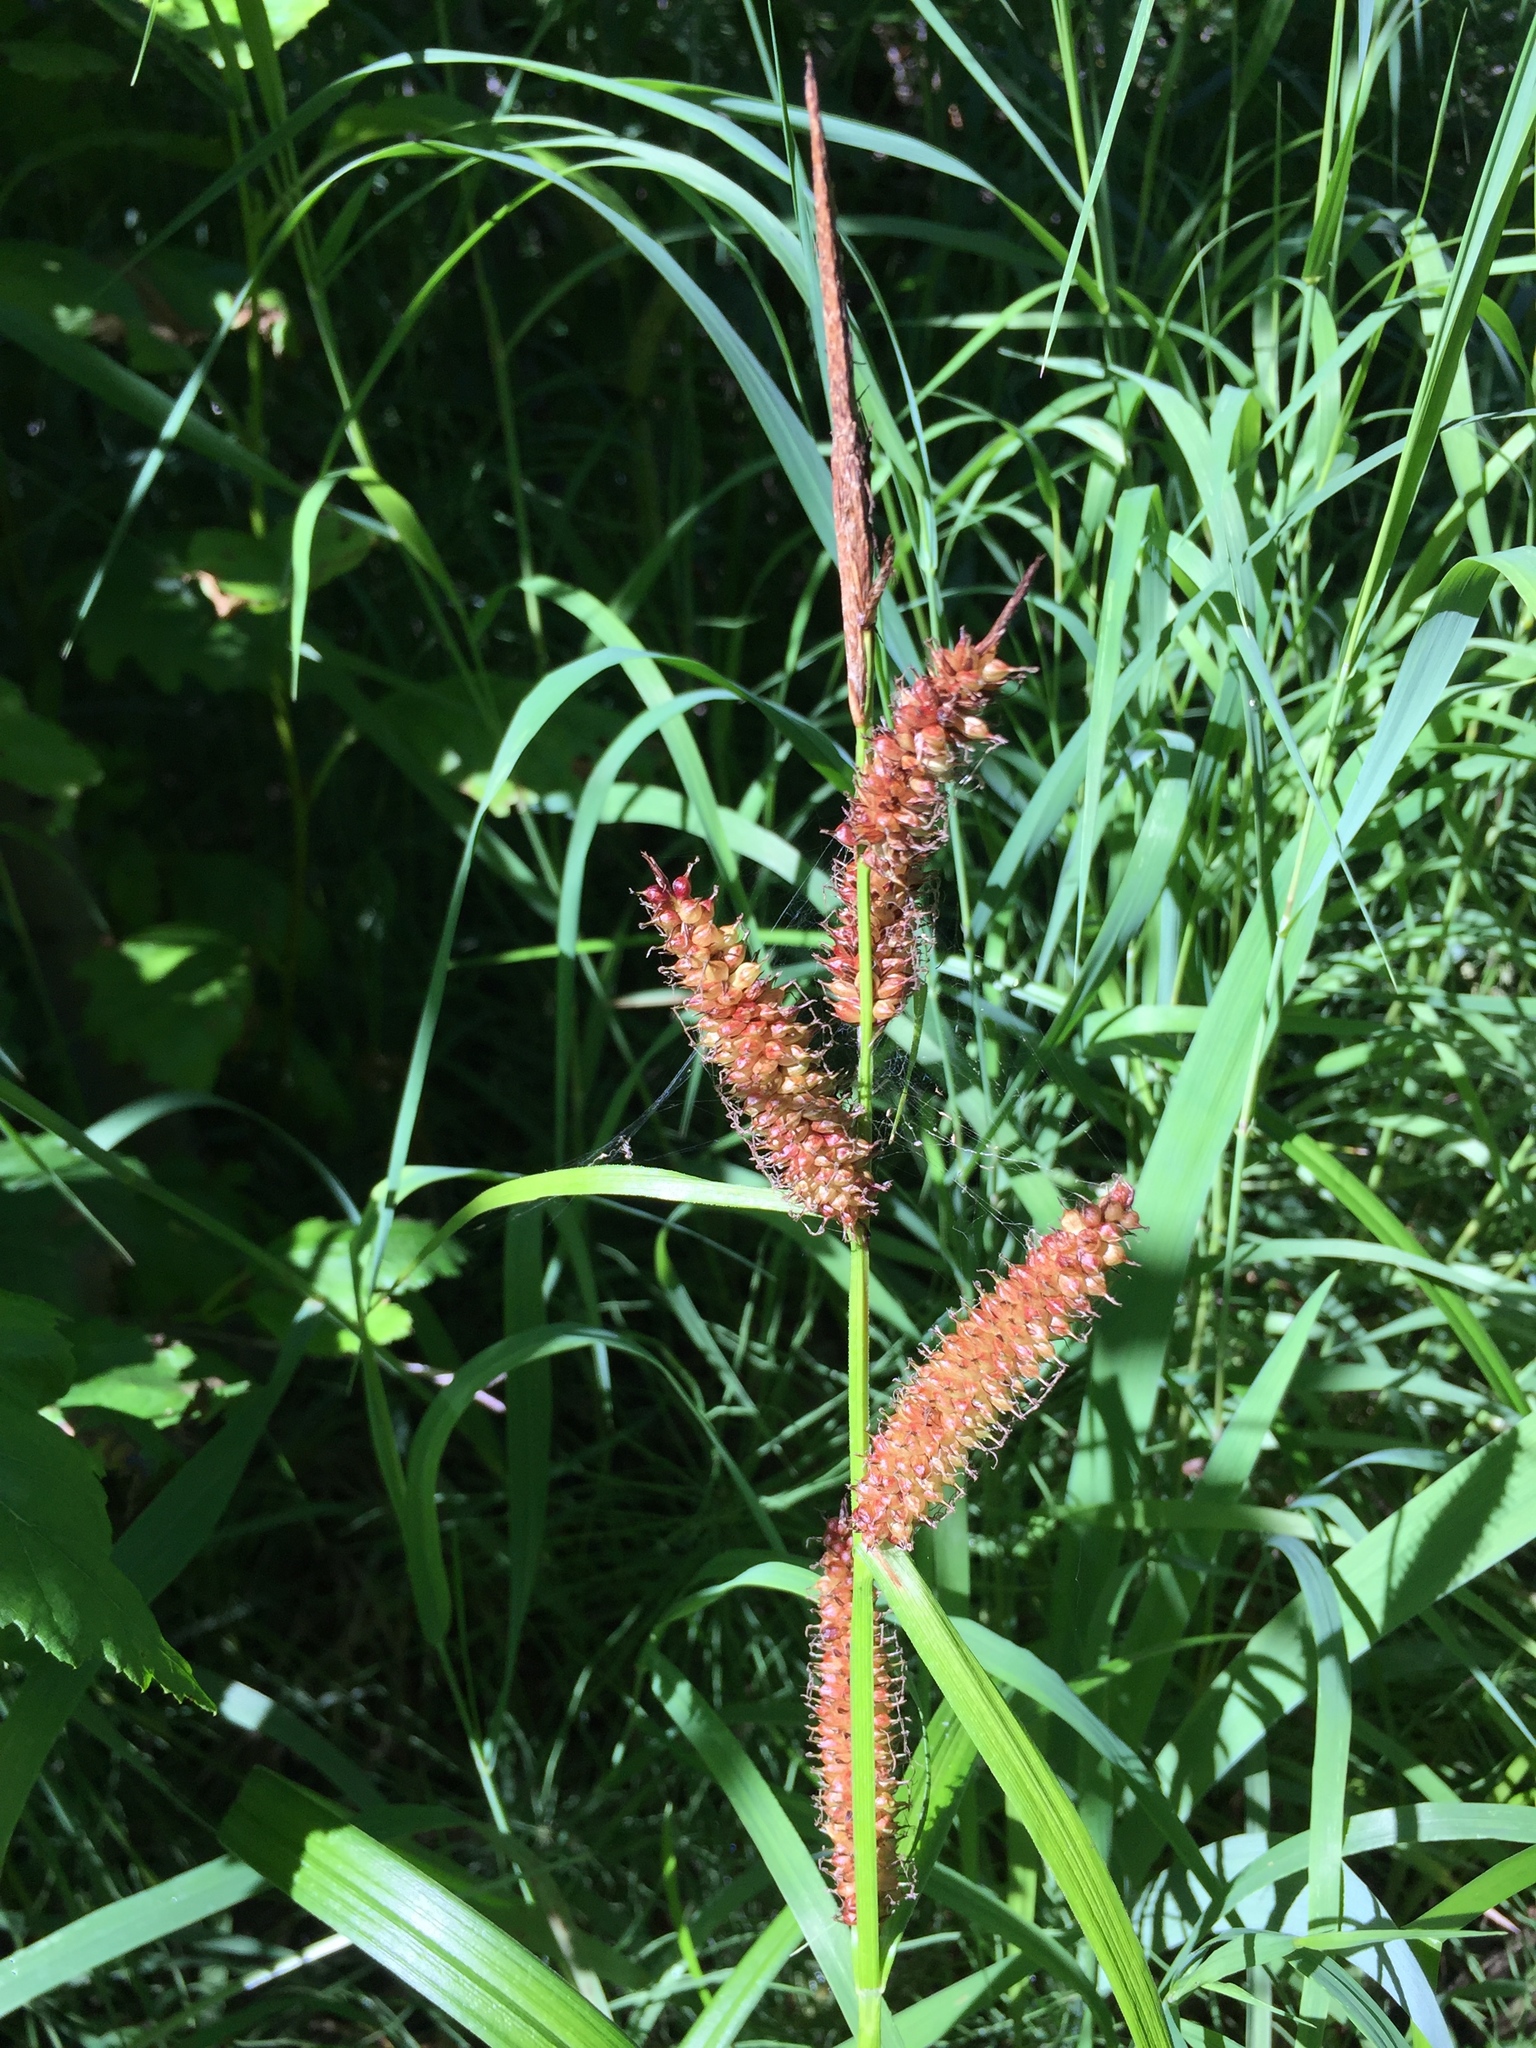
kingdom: Plantae
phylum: Tracheophyta
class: Liliopsida
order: Poales
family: Cyperaceae
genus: Carex
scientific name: Carex utriculata
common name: Beaked sedge
